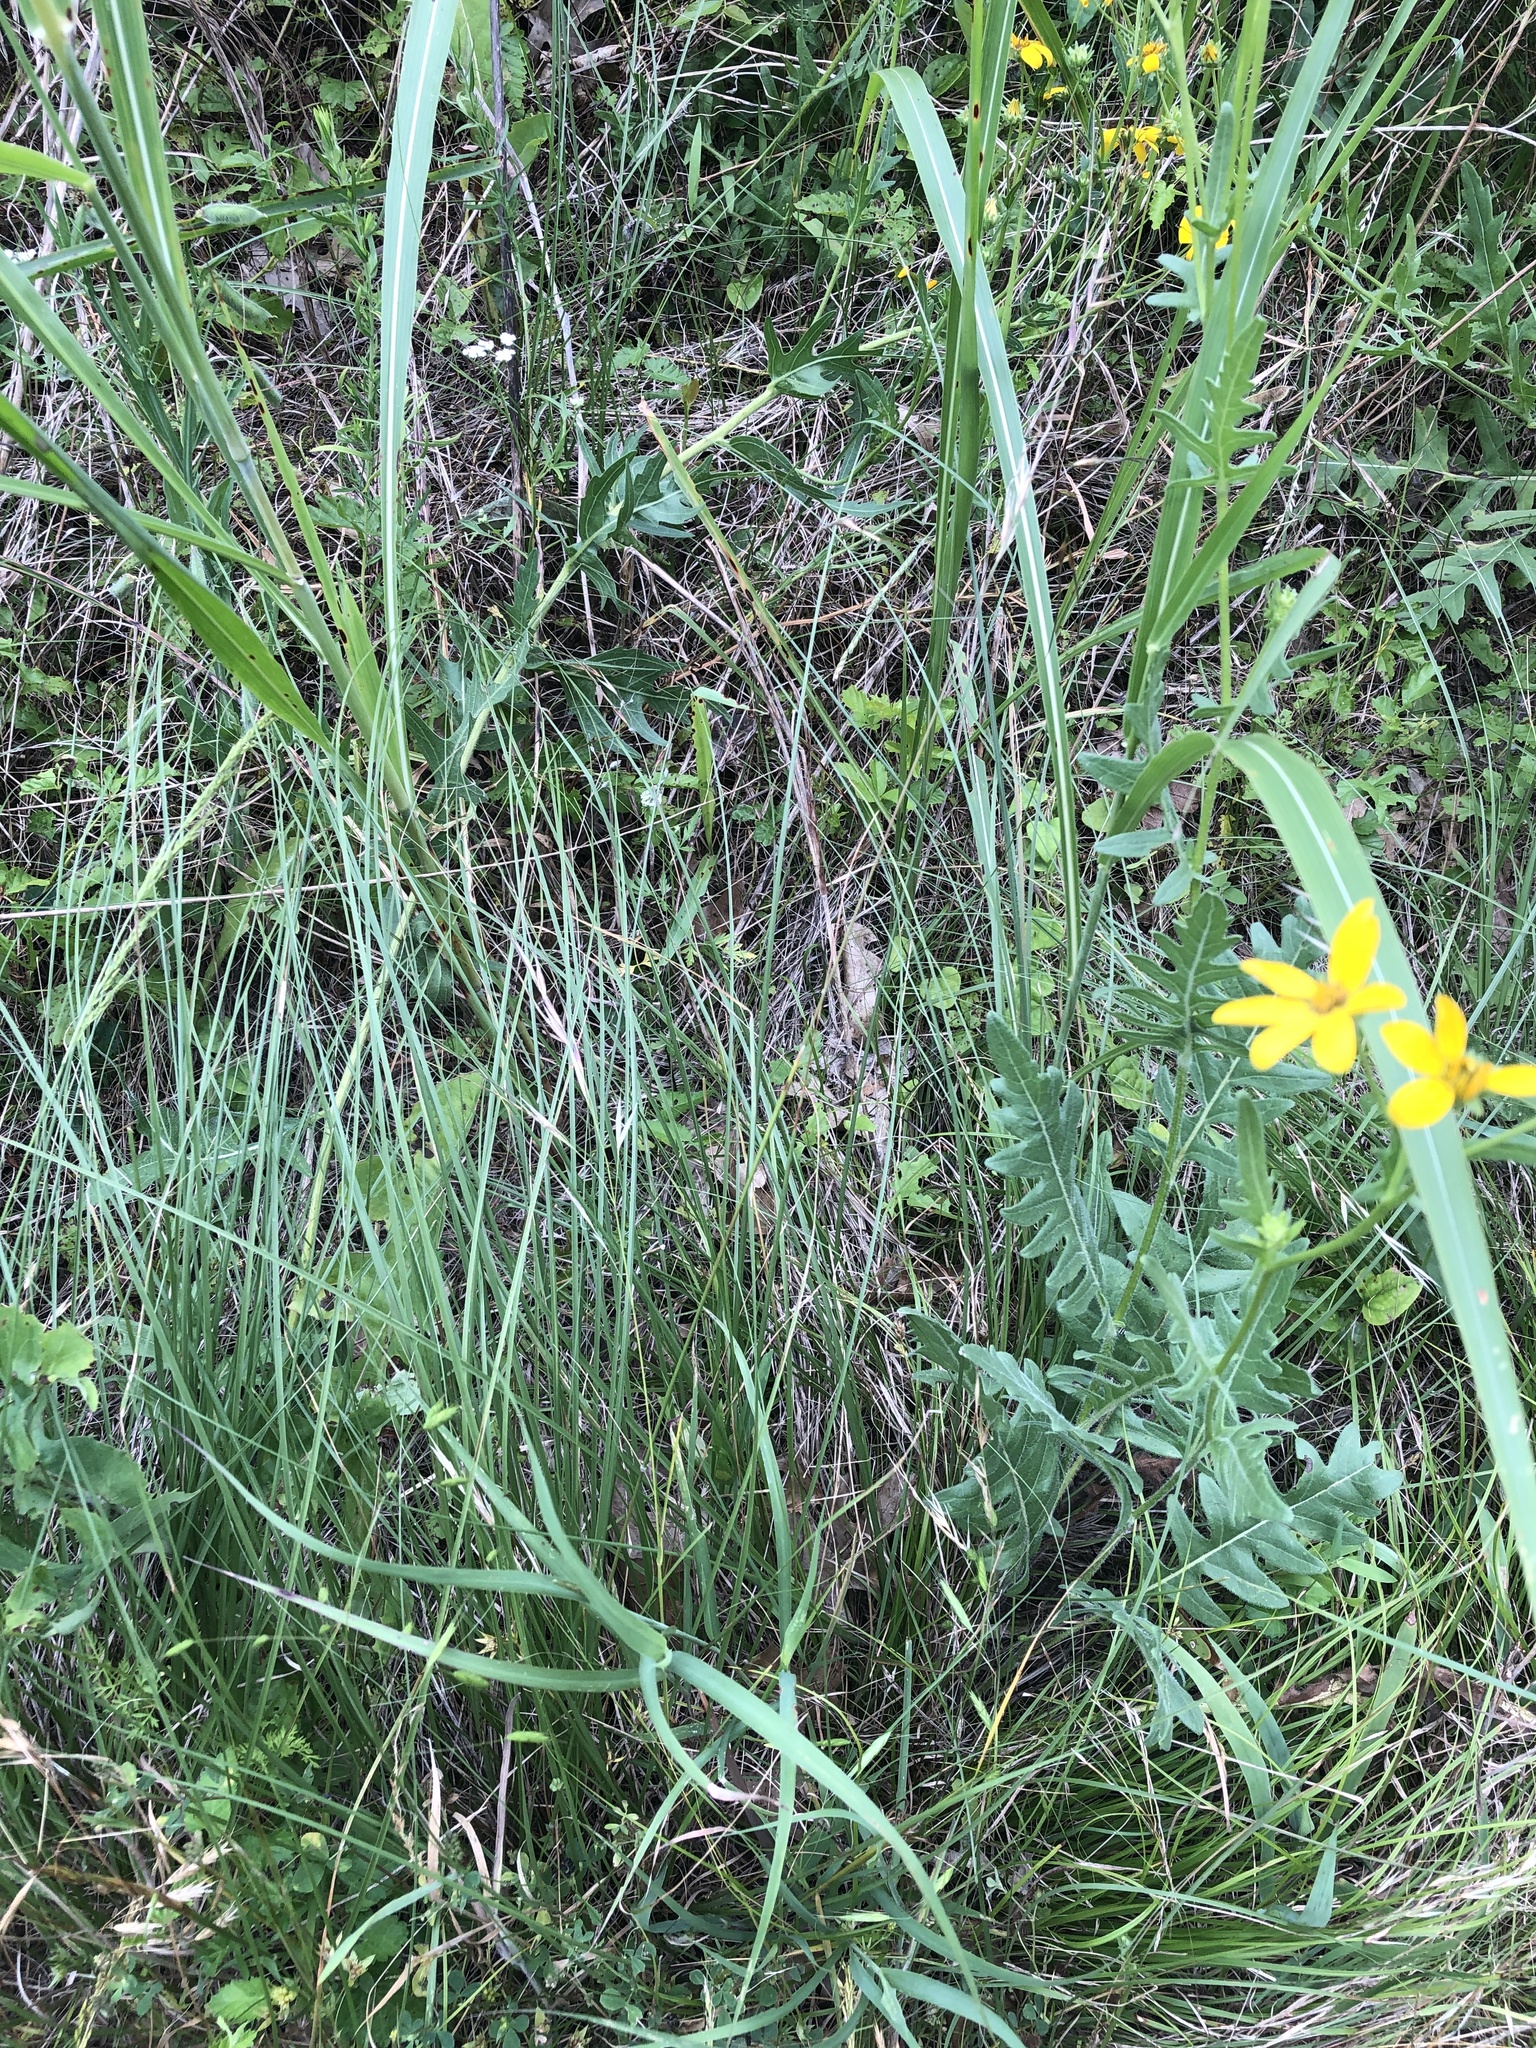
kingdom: Plantae
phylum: Tracheophyta
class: Liliopsida
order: Poales
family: Poaceae
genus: Nassella
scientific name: Nassella leucotricha
